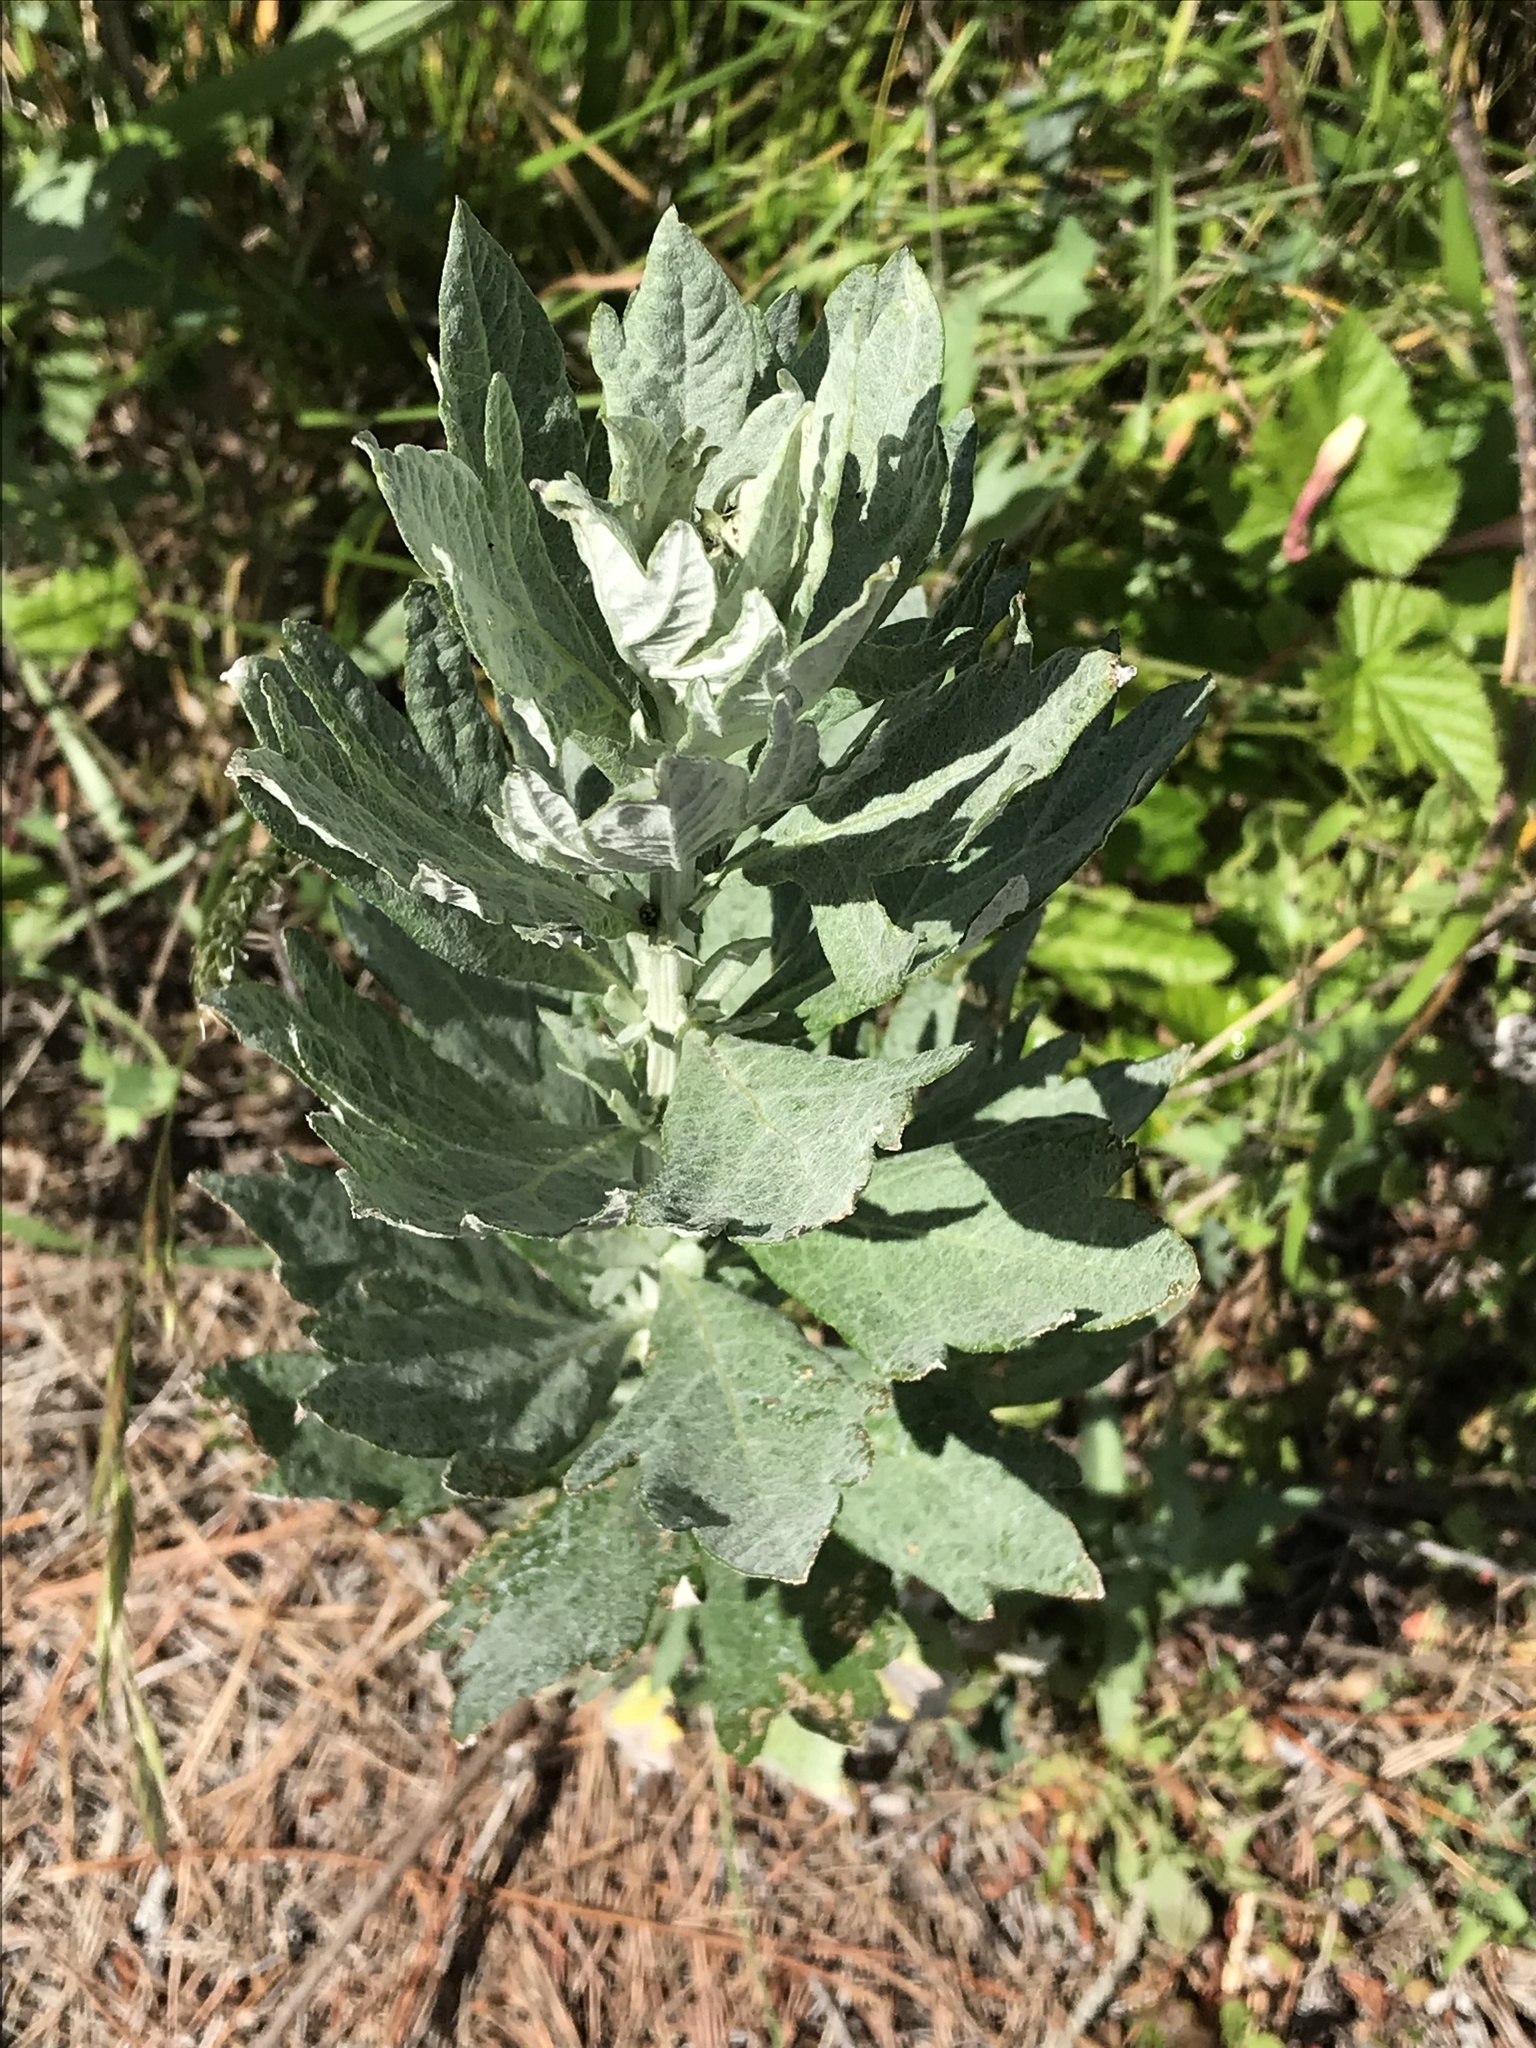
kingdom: Plantae
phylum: Tracheophyta
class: Magnoliopsida
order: Asterales
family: Asteraceae
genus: Artemisia
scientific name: Artemisia douglasiana
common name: Northwest mugwort
